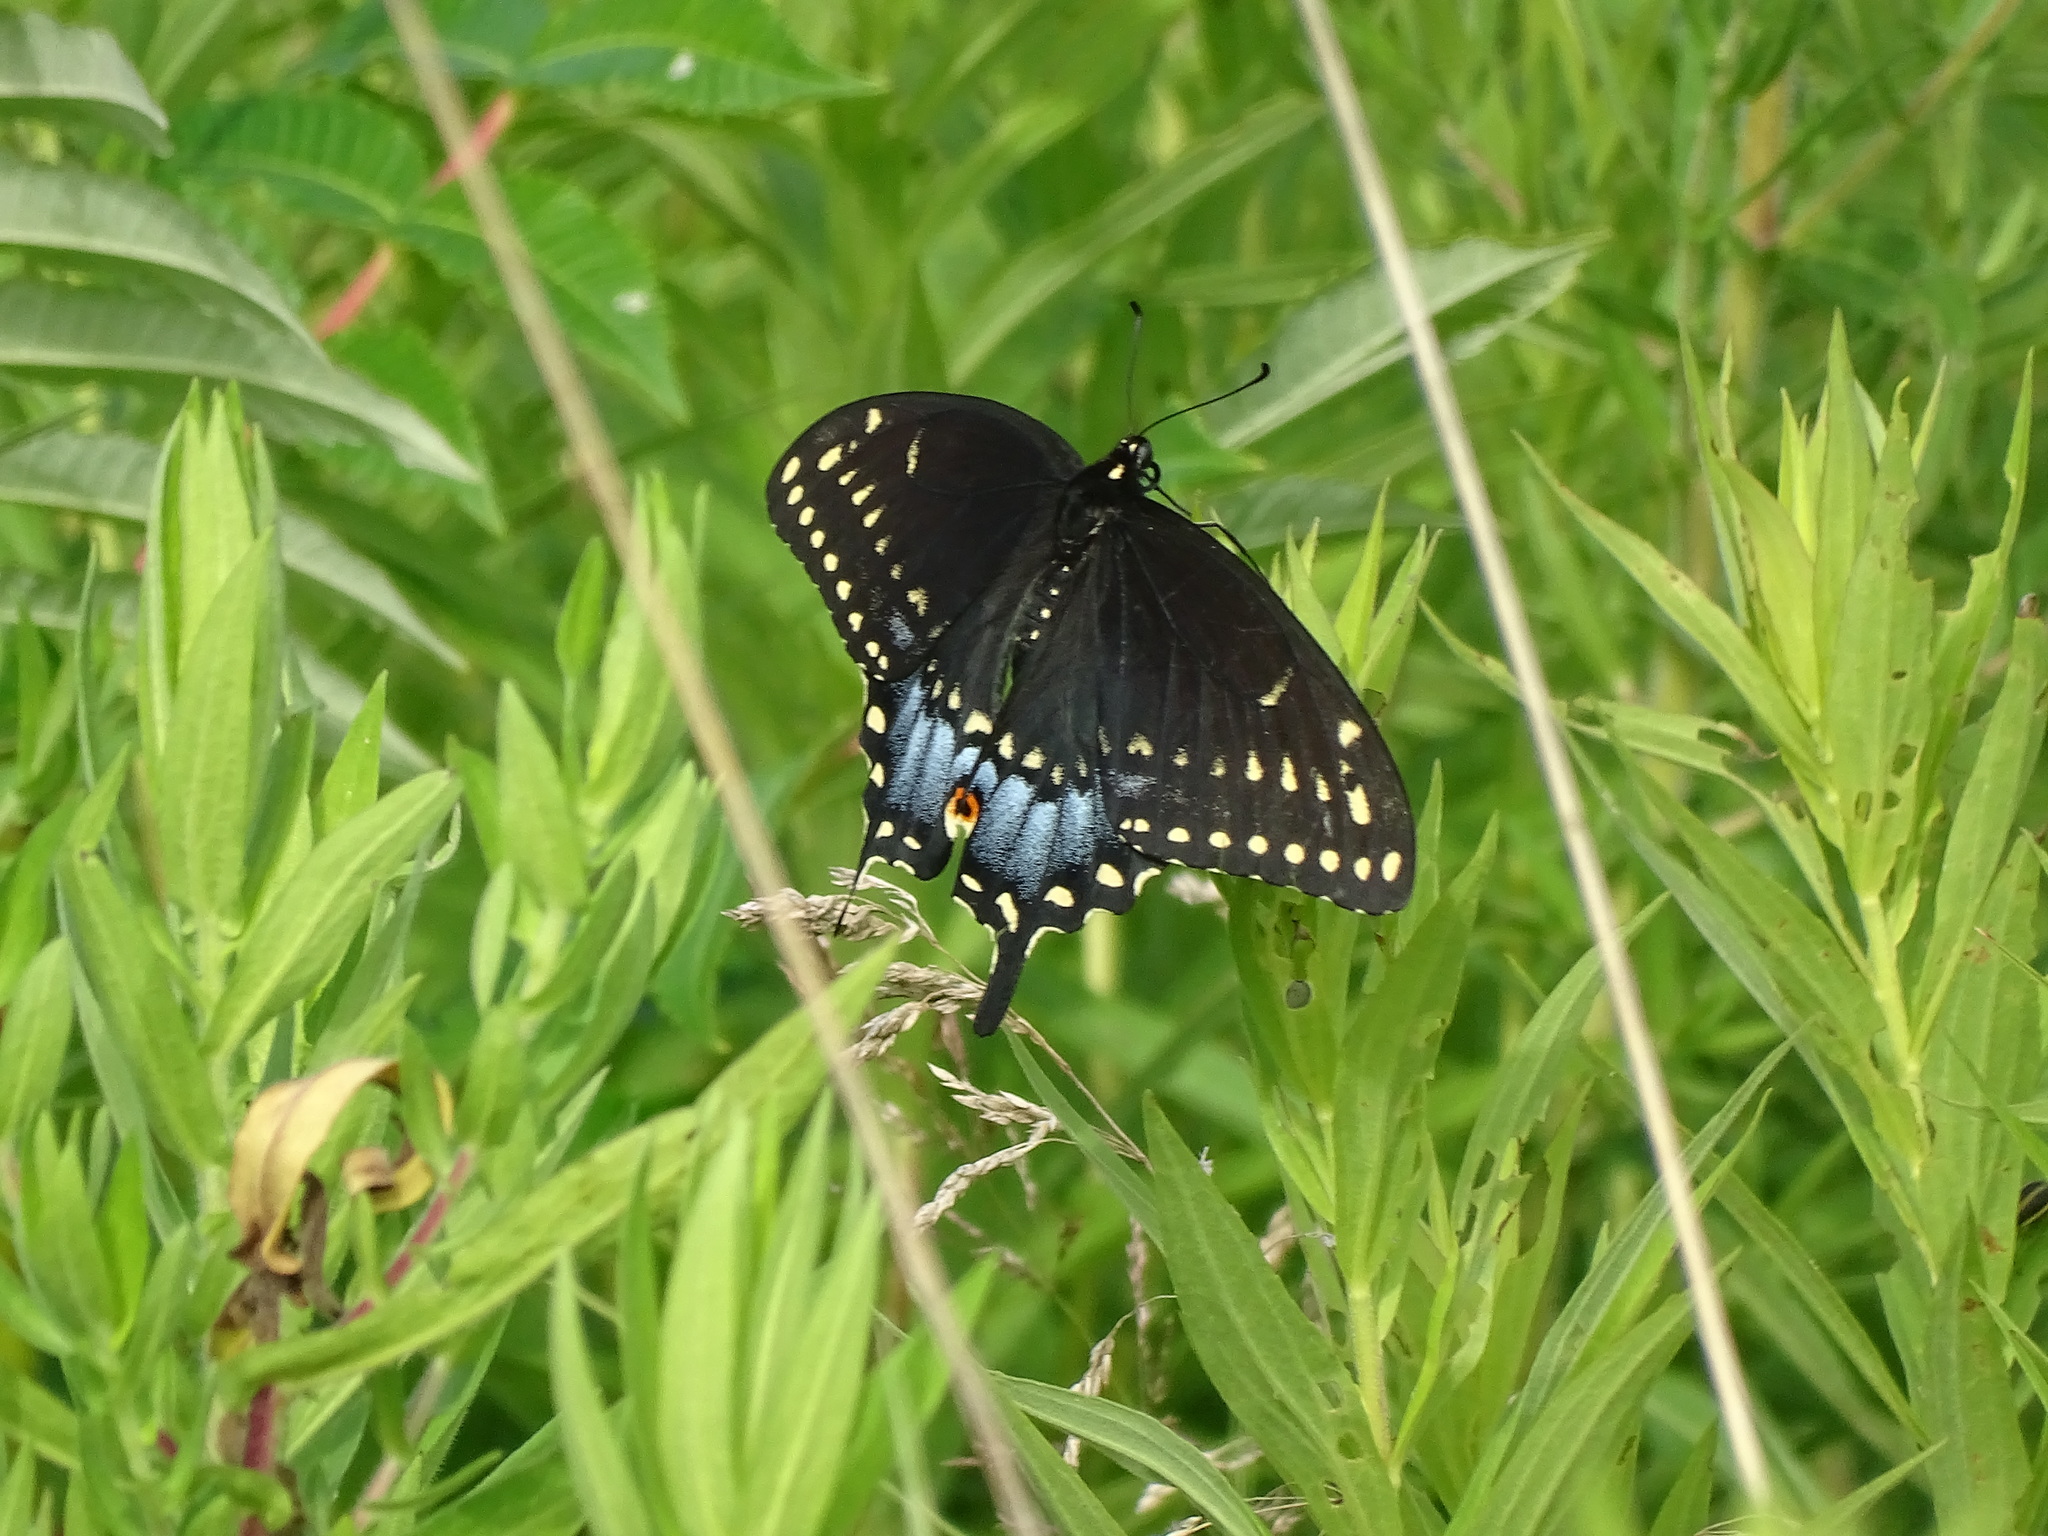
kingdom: Animalia
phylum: Arthropoda
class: Insecta
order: Lepidoptera
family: Papilionidae
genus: Papilio
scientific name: Papilio polyxenes
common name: Black swallowtail
